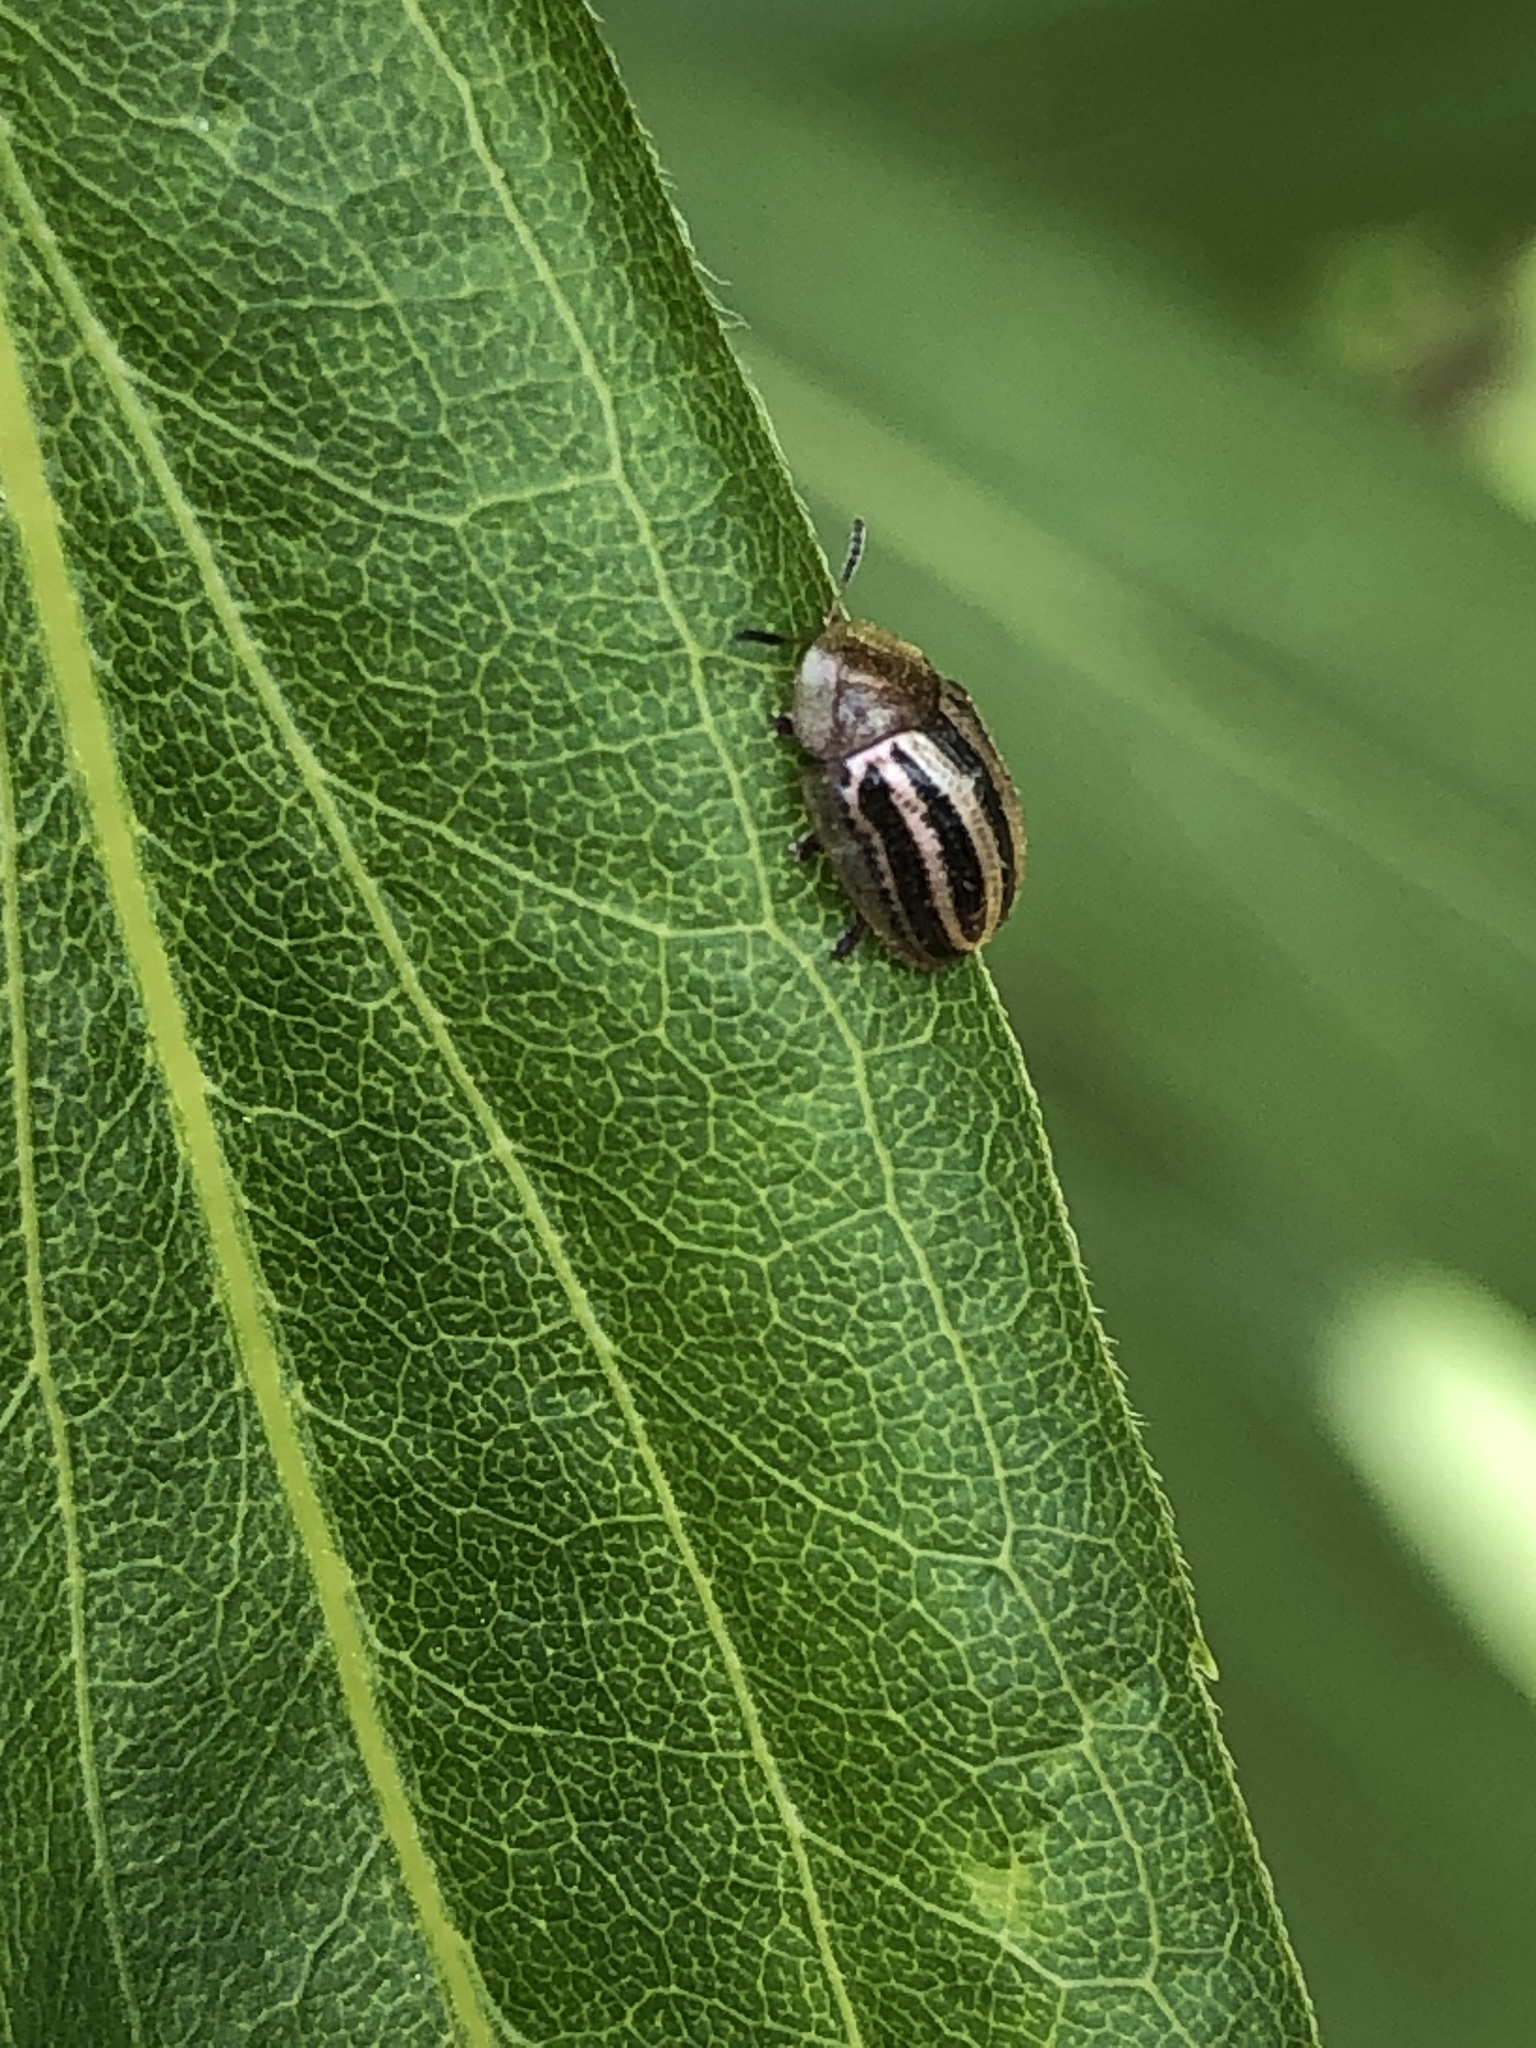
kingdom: Animalia
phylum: Arthropoda
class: Insecta
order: Coleoptera
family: Chrysomelidae
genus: Agroiconota
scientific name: Agroiconota bivittata
